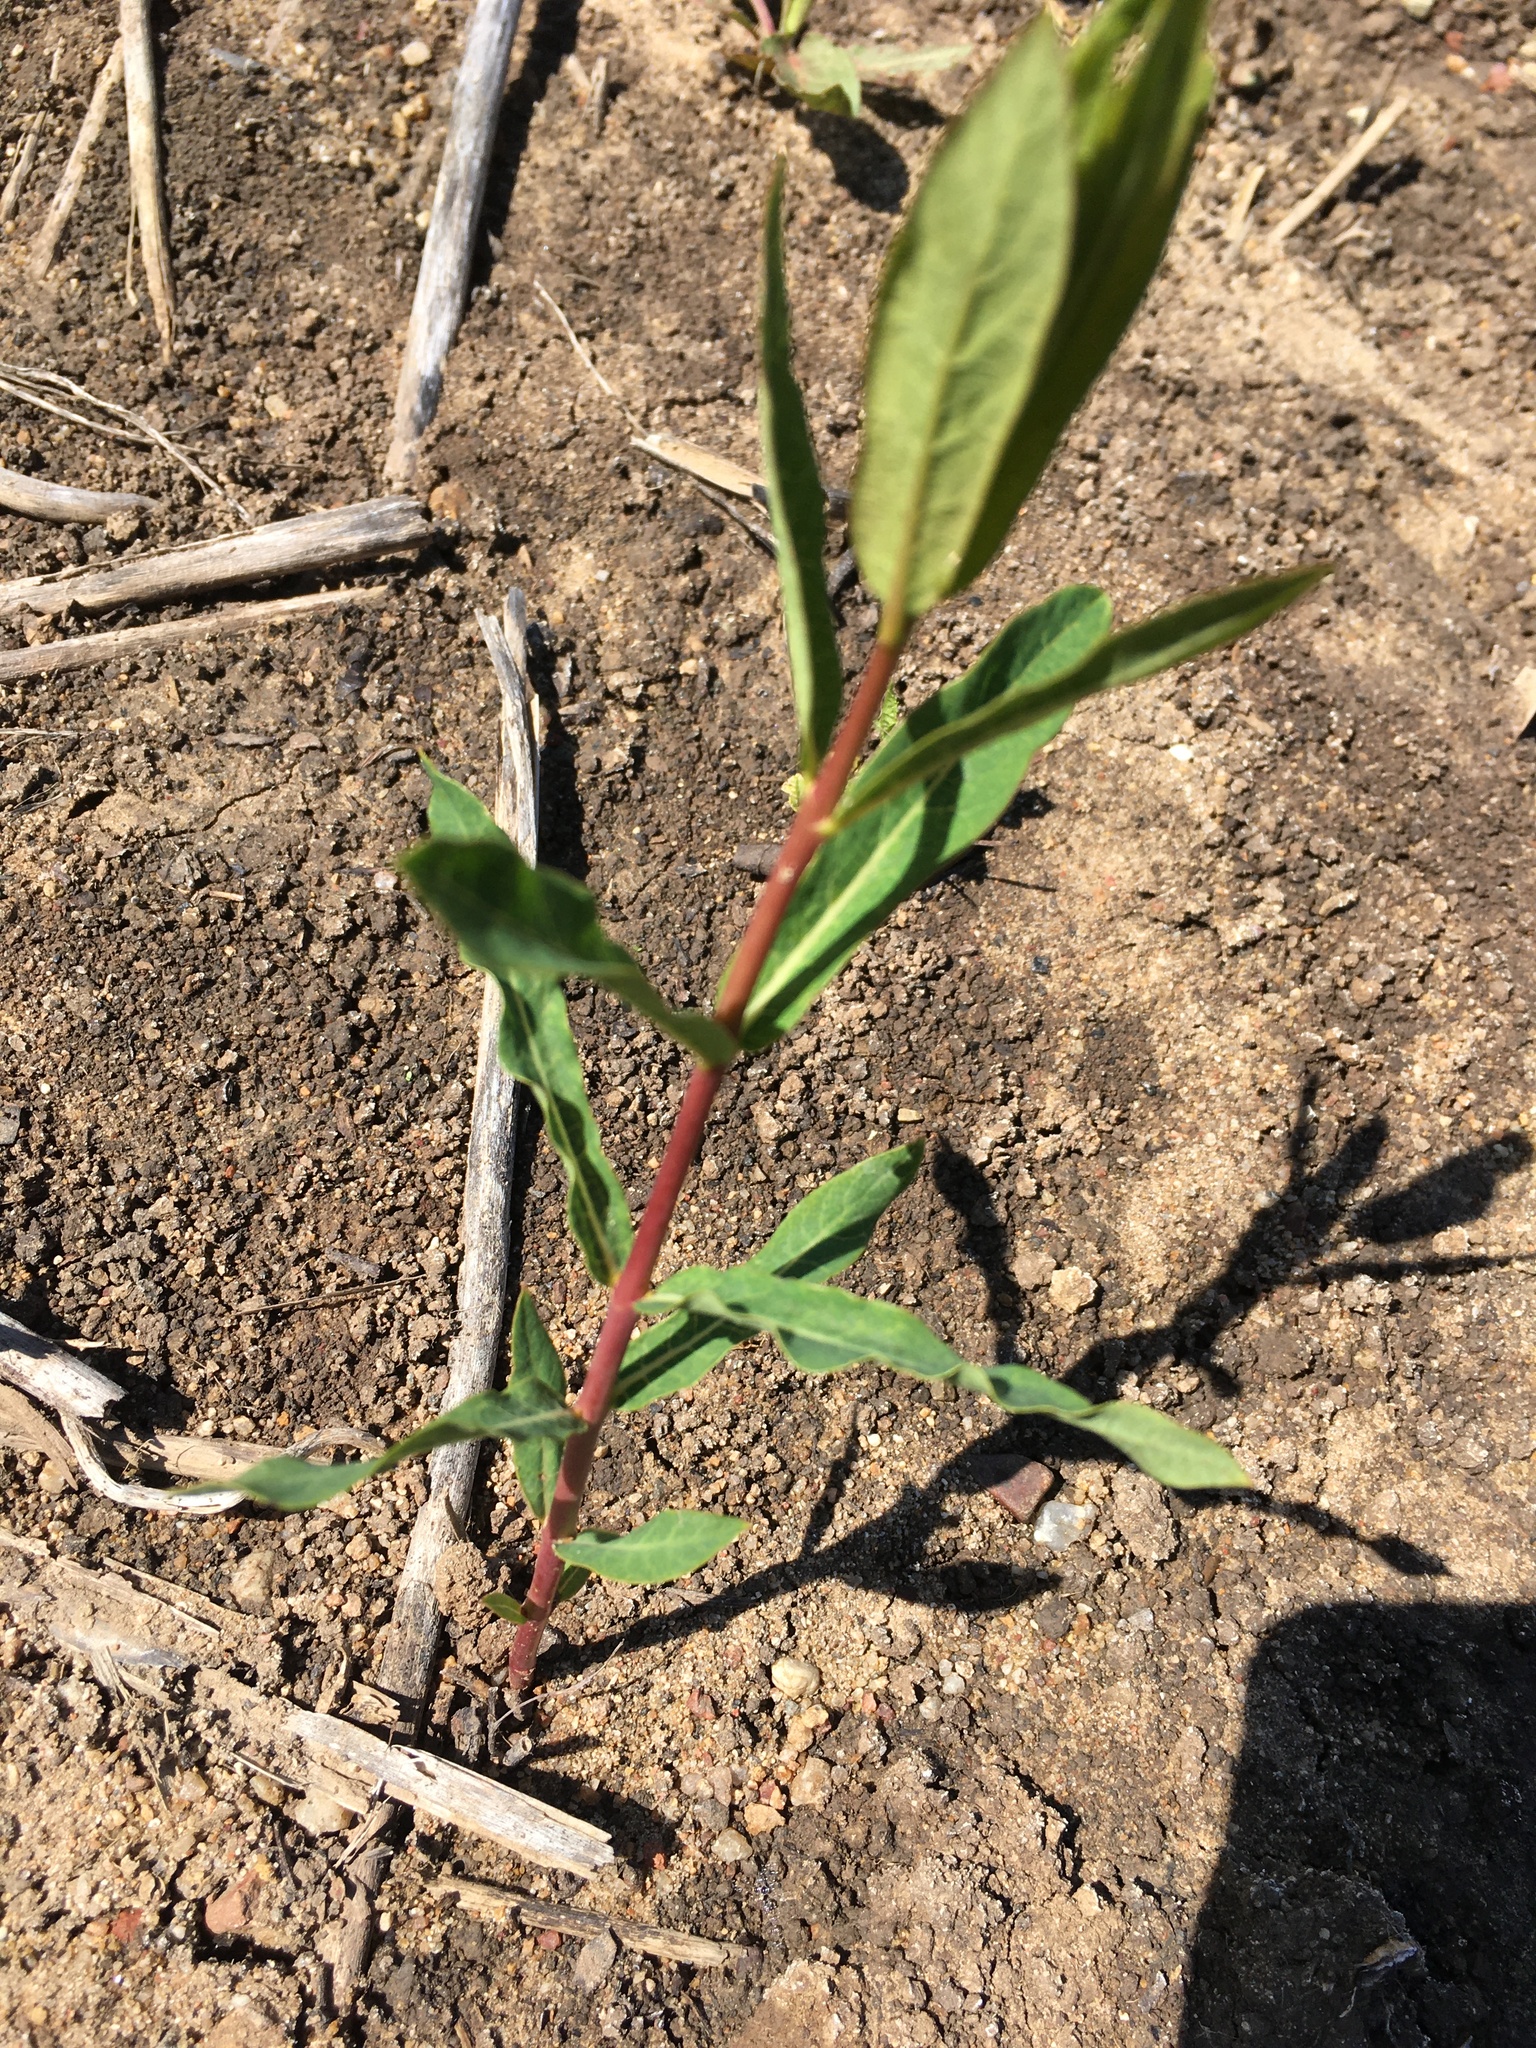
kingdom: Plantae
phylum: Tracheophyta
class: Magnoliopsida
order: Gentianales
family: Apocynaceae
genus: Apocynum
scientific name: Apocynum cannabinum
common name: Hemp dogbane
